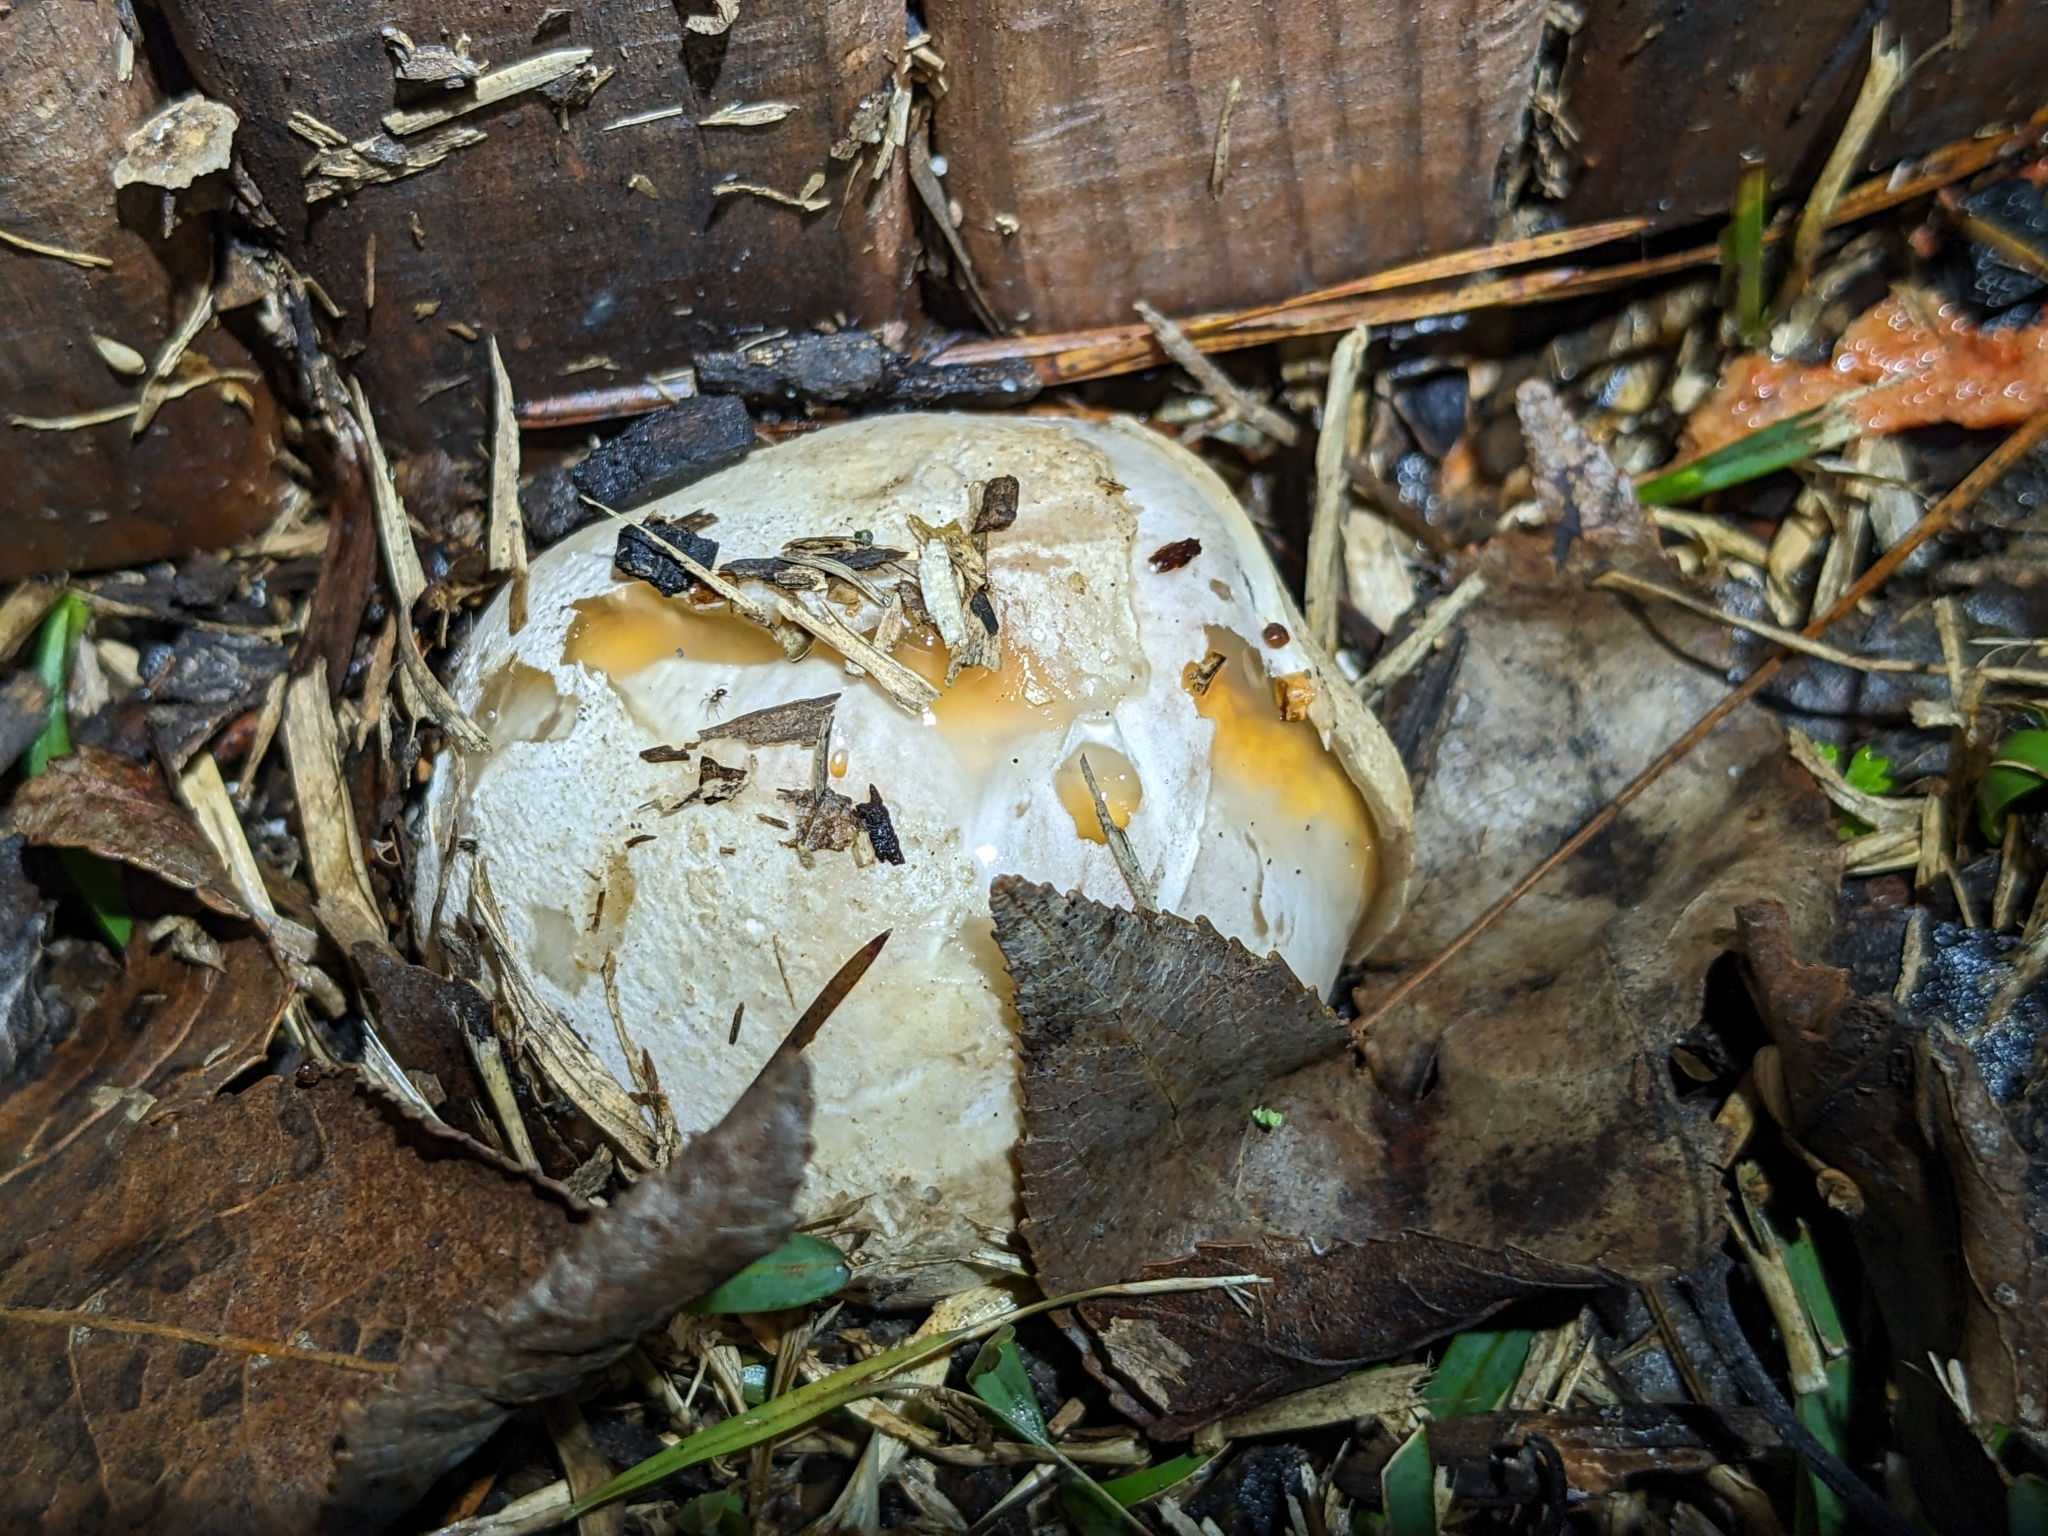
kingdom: Fungi
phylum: Basidiomycota
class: Agaricomycetes
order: Phallales
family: Phallaceae
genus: Clathrus
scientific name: Clathrus columnatus
